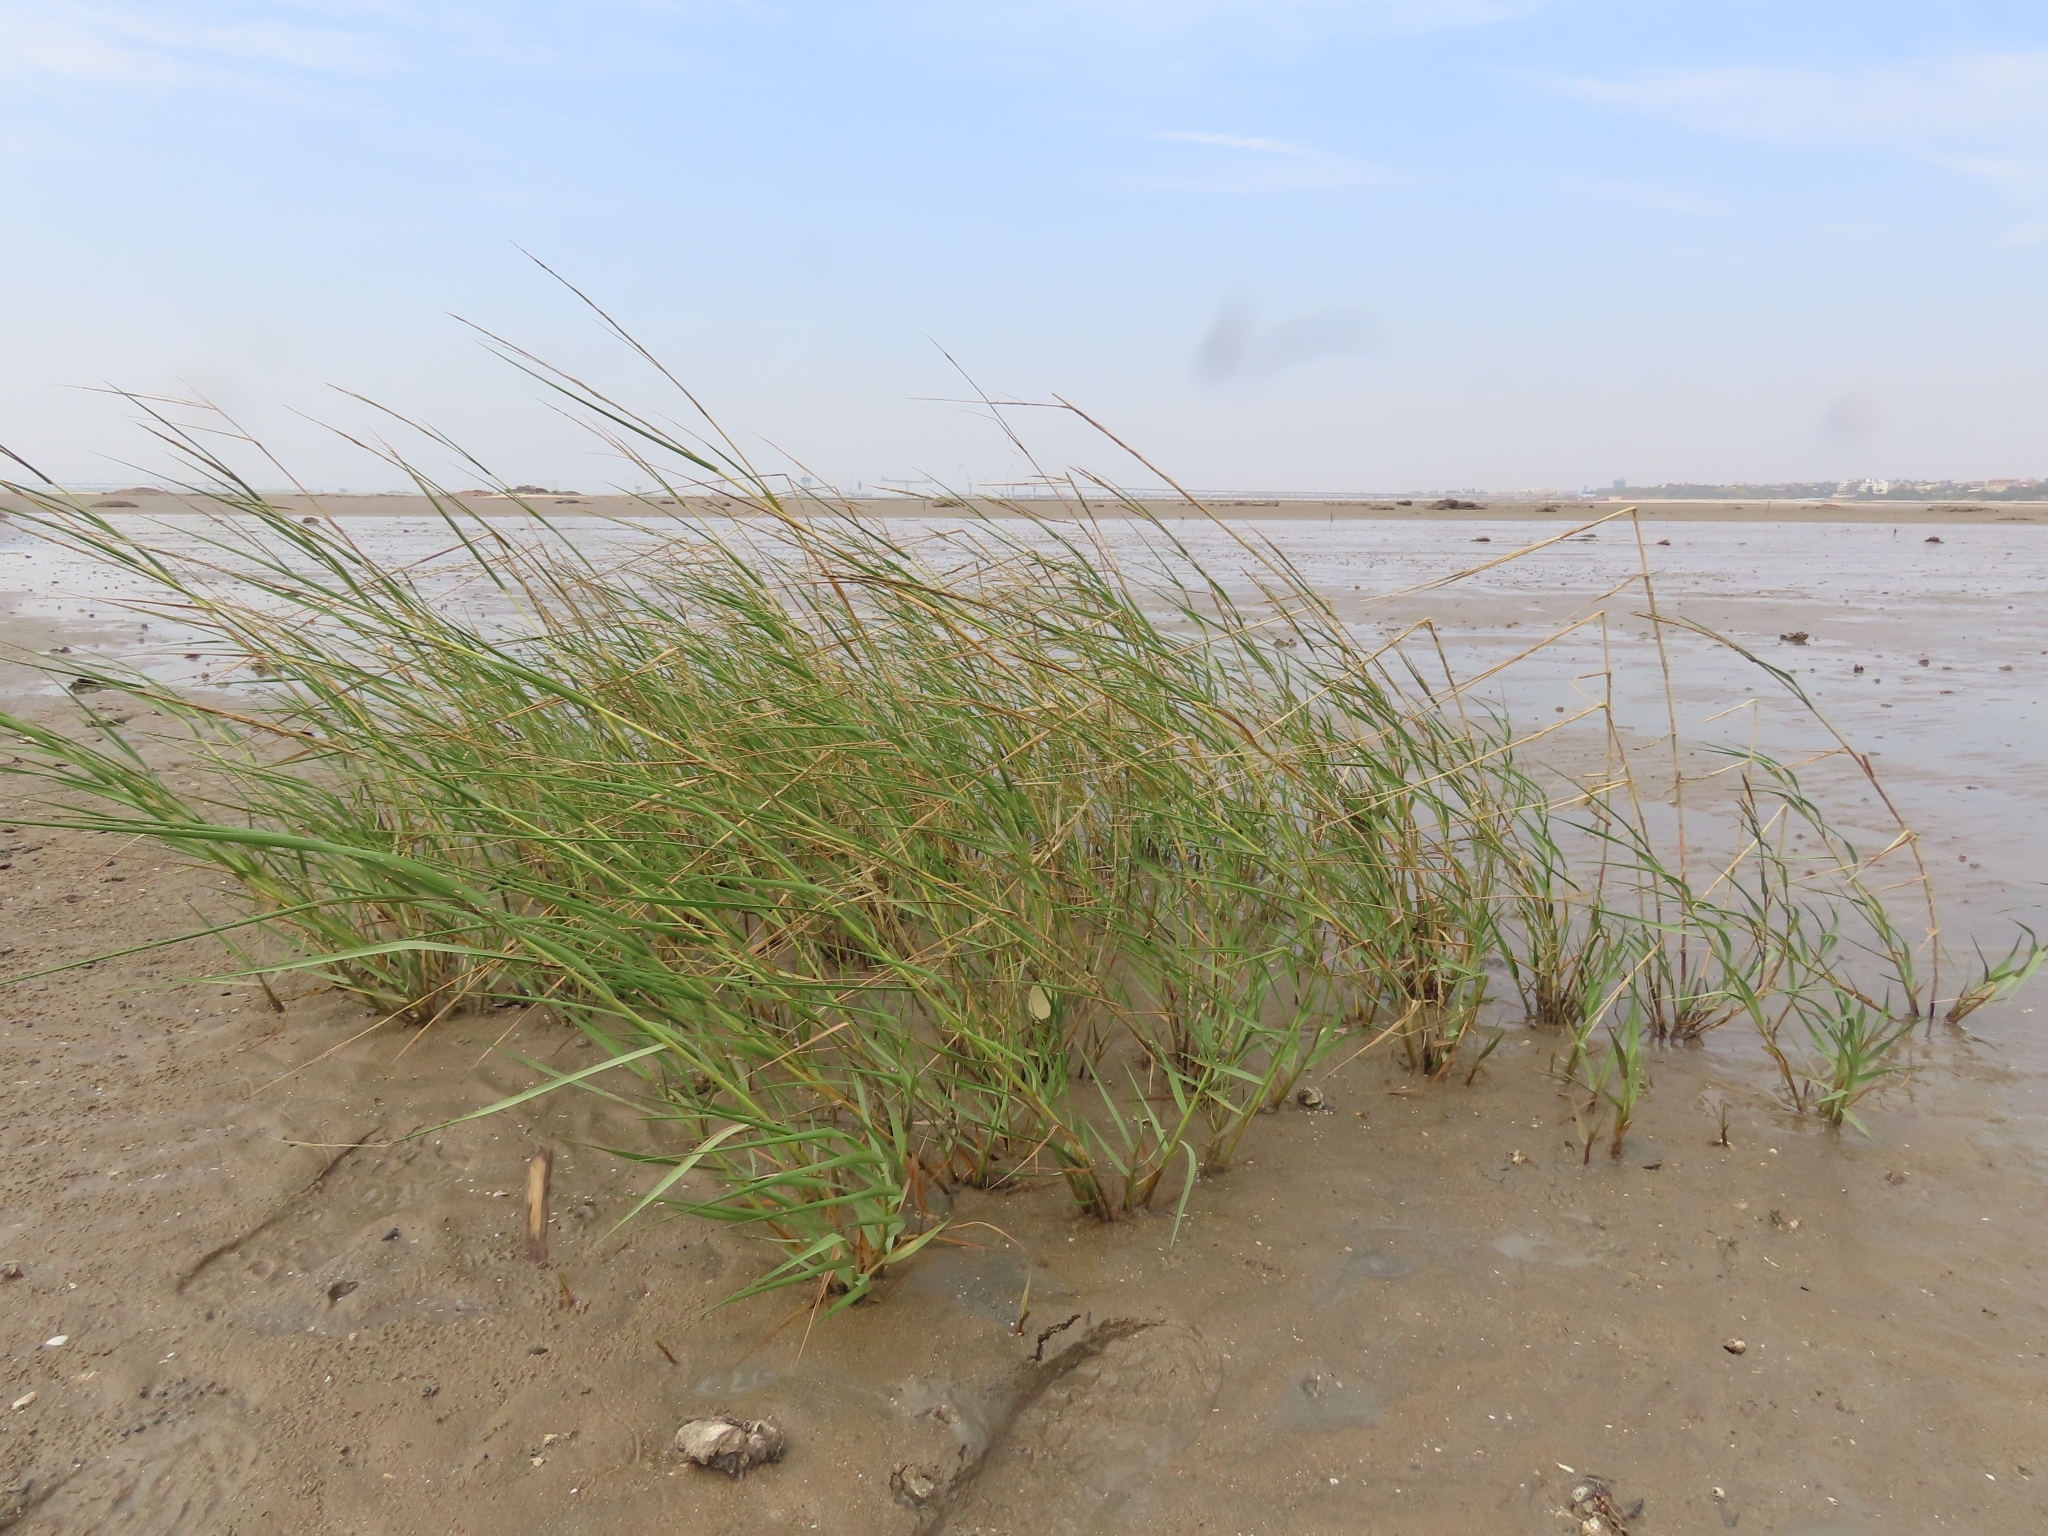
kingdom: Plantae
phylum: Tracheophyta
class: Liliopsida
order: Poales
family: Poaceae
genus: Sporobolus
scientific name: Sporobolus alterniflorus
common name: Atlantic cordgrass
